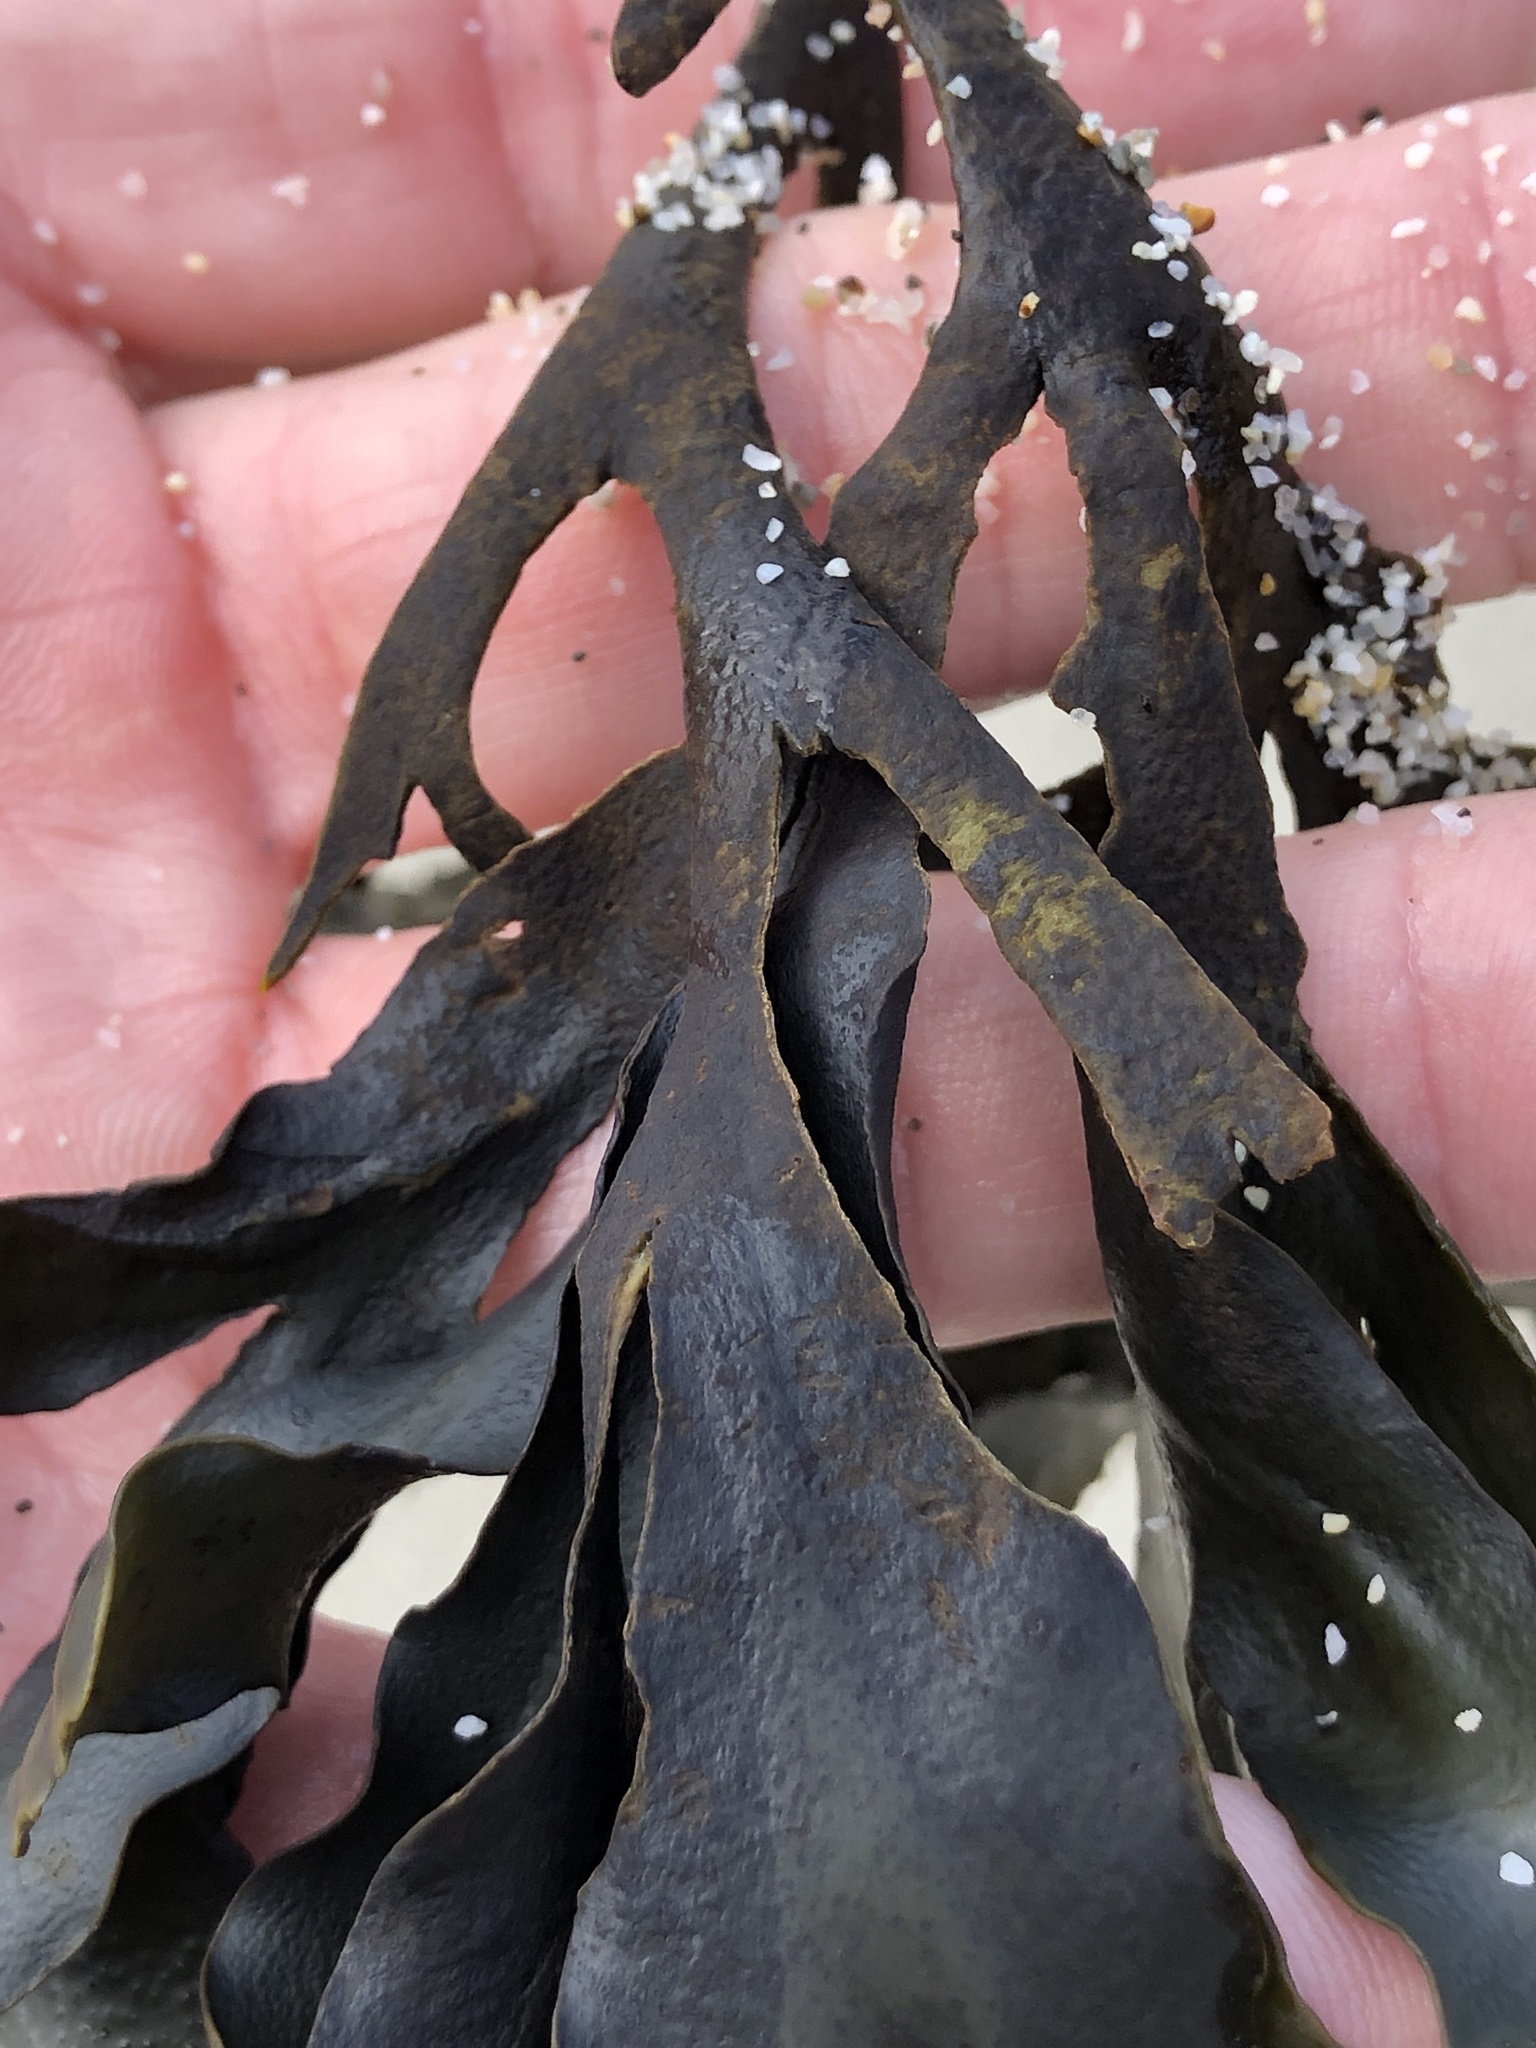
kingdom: Chromista
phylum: Ochrophyta
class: Phaeophyceae
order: Fucales
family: Fucaceae
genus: Fucus
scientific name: Fucus distichus
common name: Rockweed
